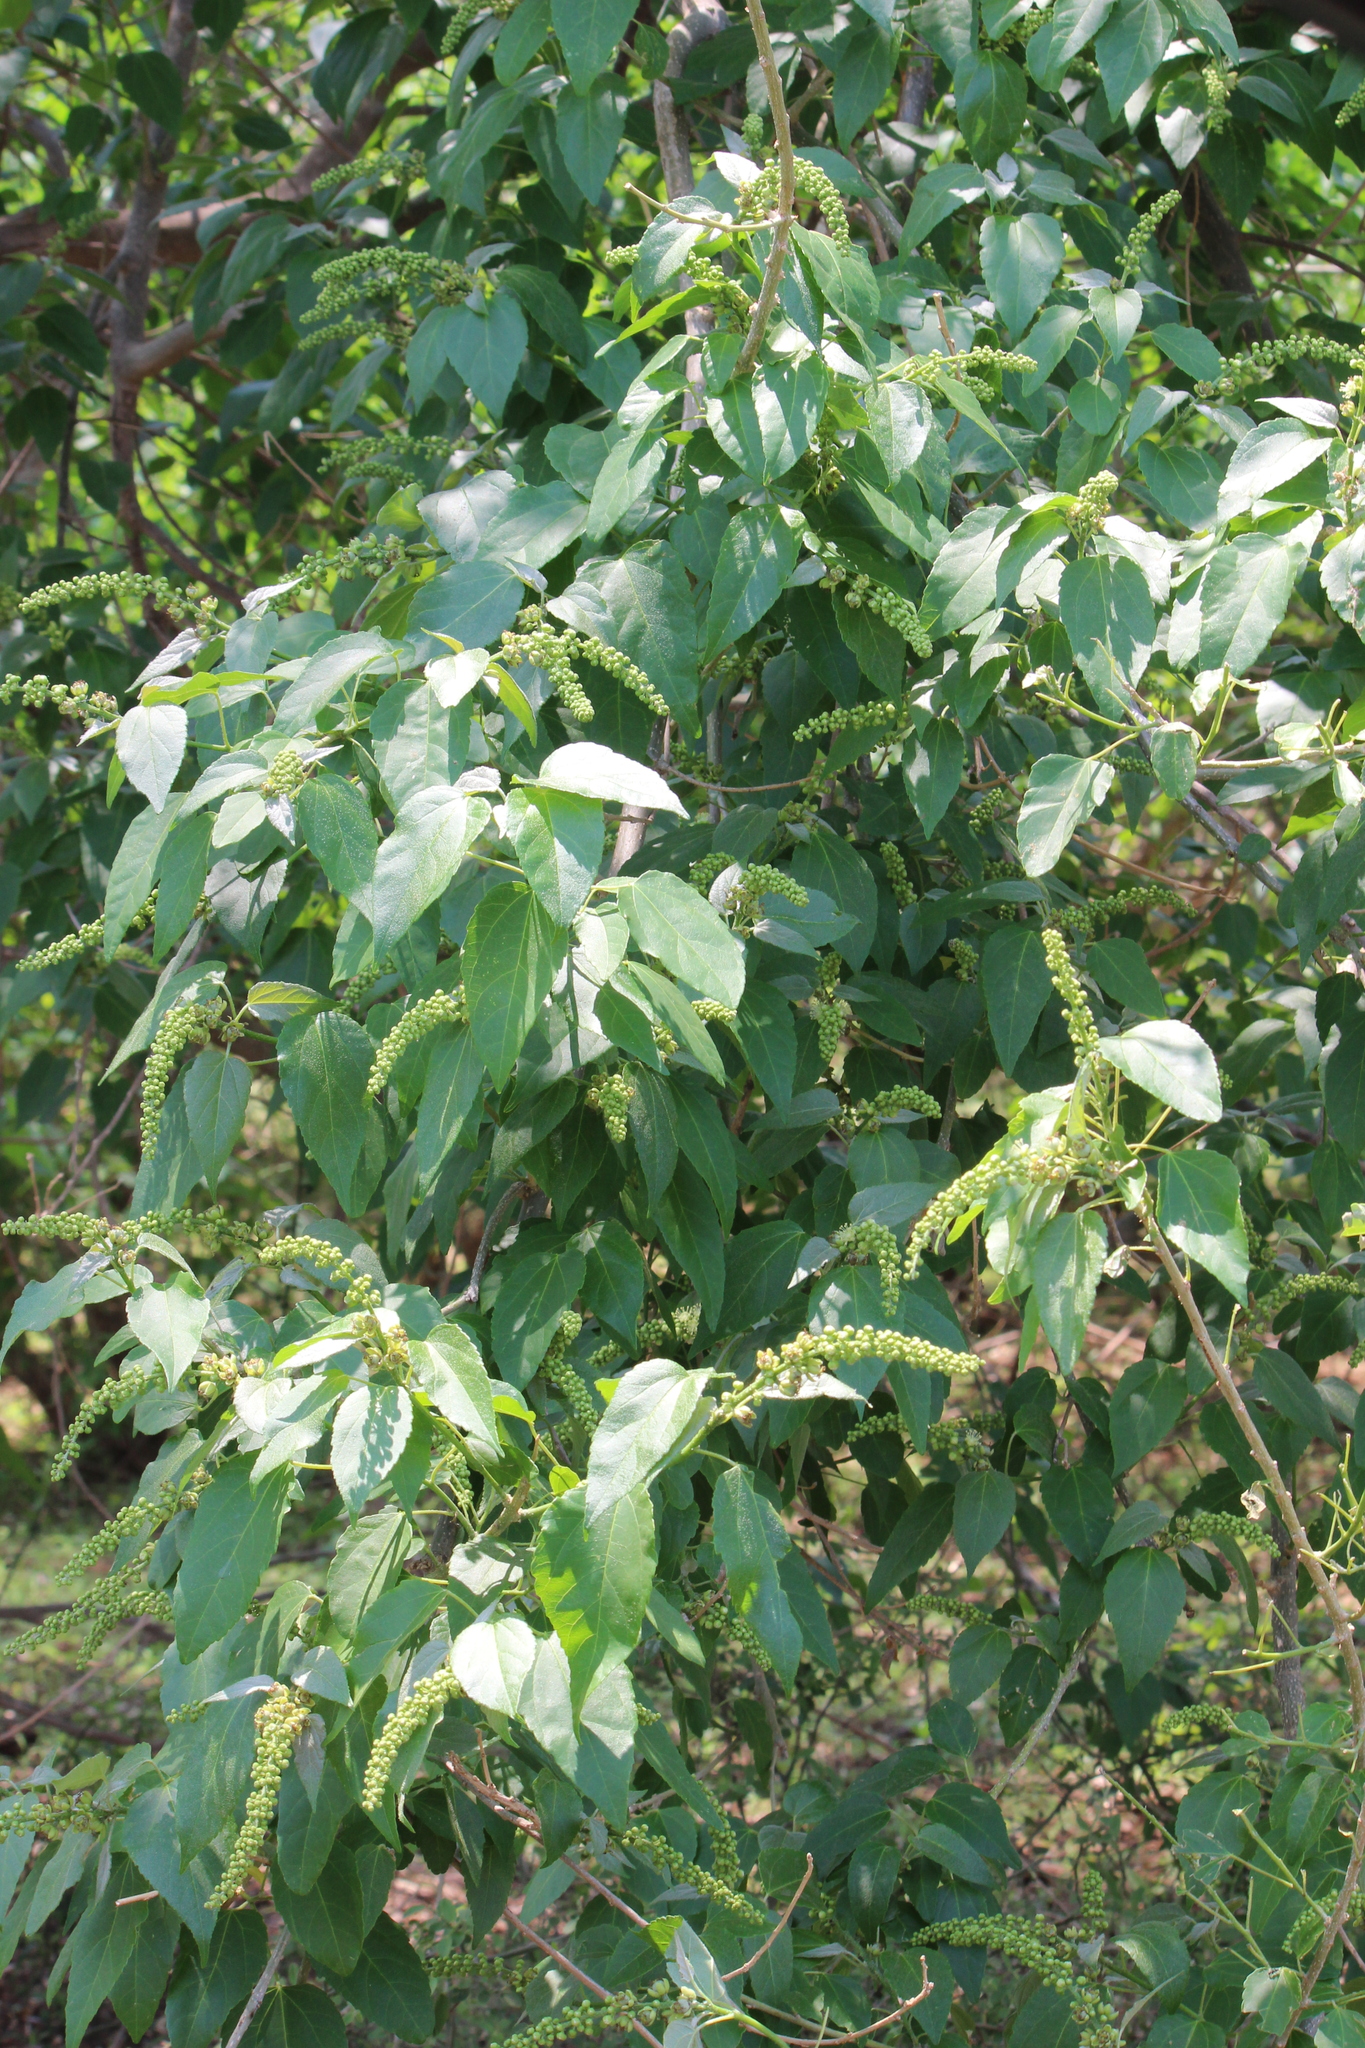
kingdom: Plantae
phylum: Tracheophyta
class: Magnoliopsida
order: Malpighiales
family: Euphorbiaceae
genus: Croton
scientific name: Croton megalobotrys
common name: Large fever berry
